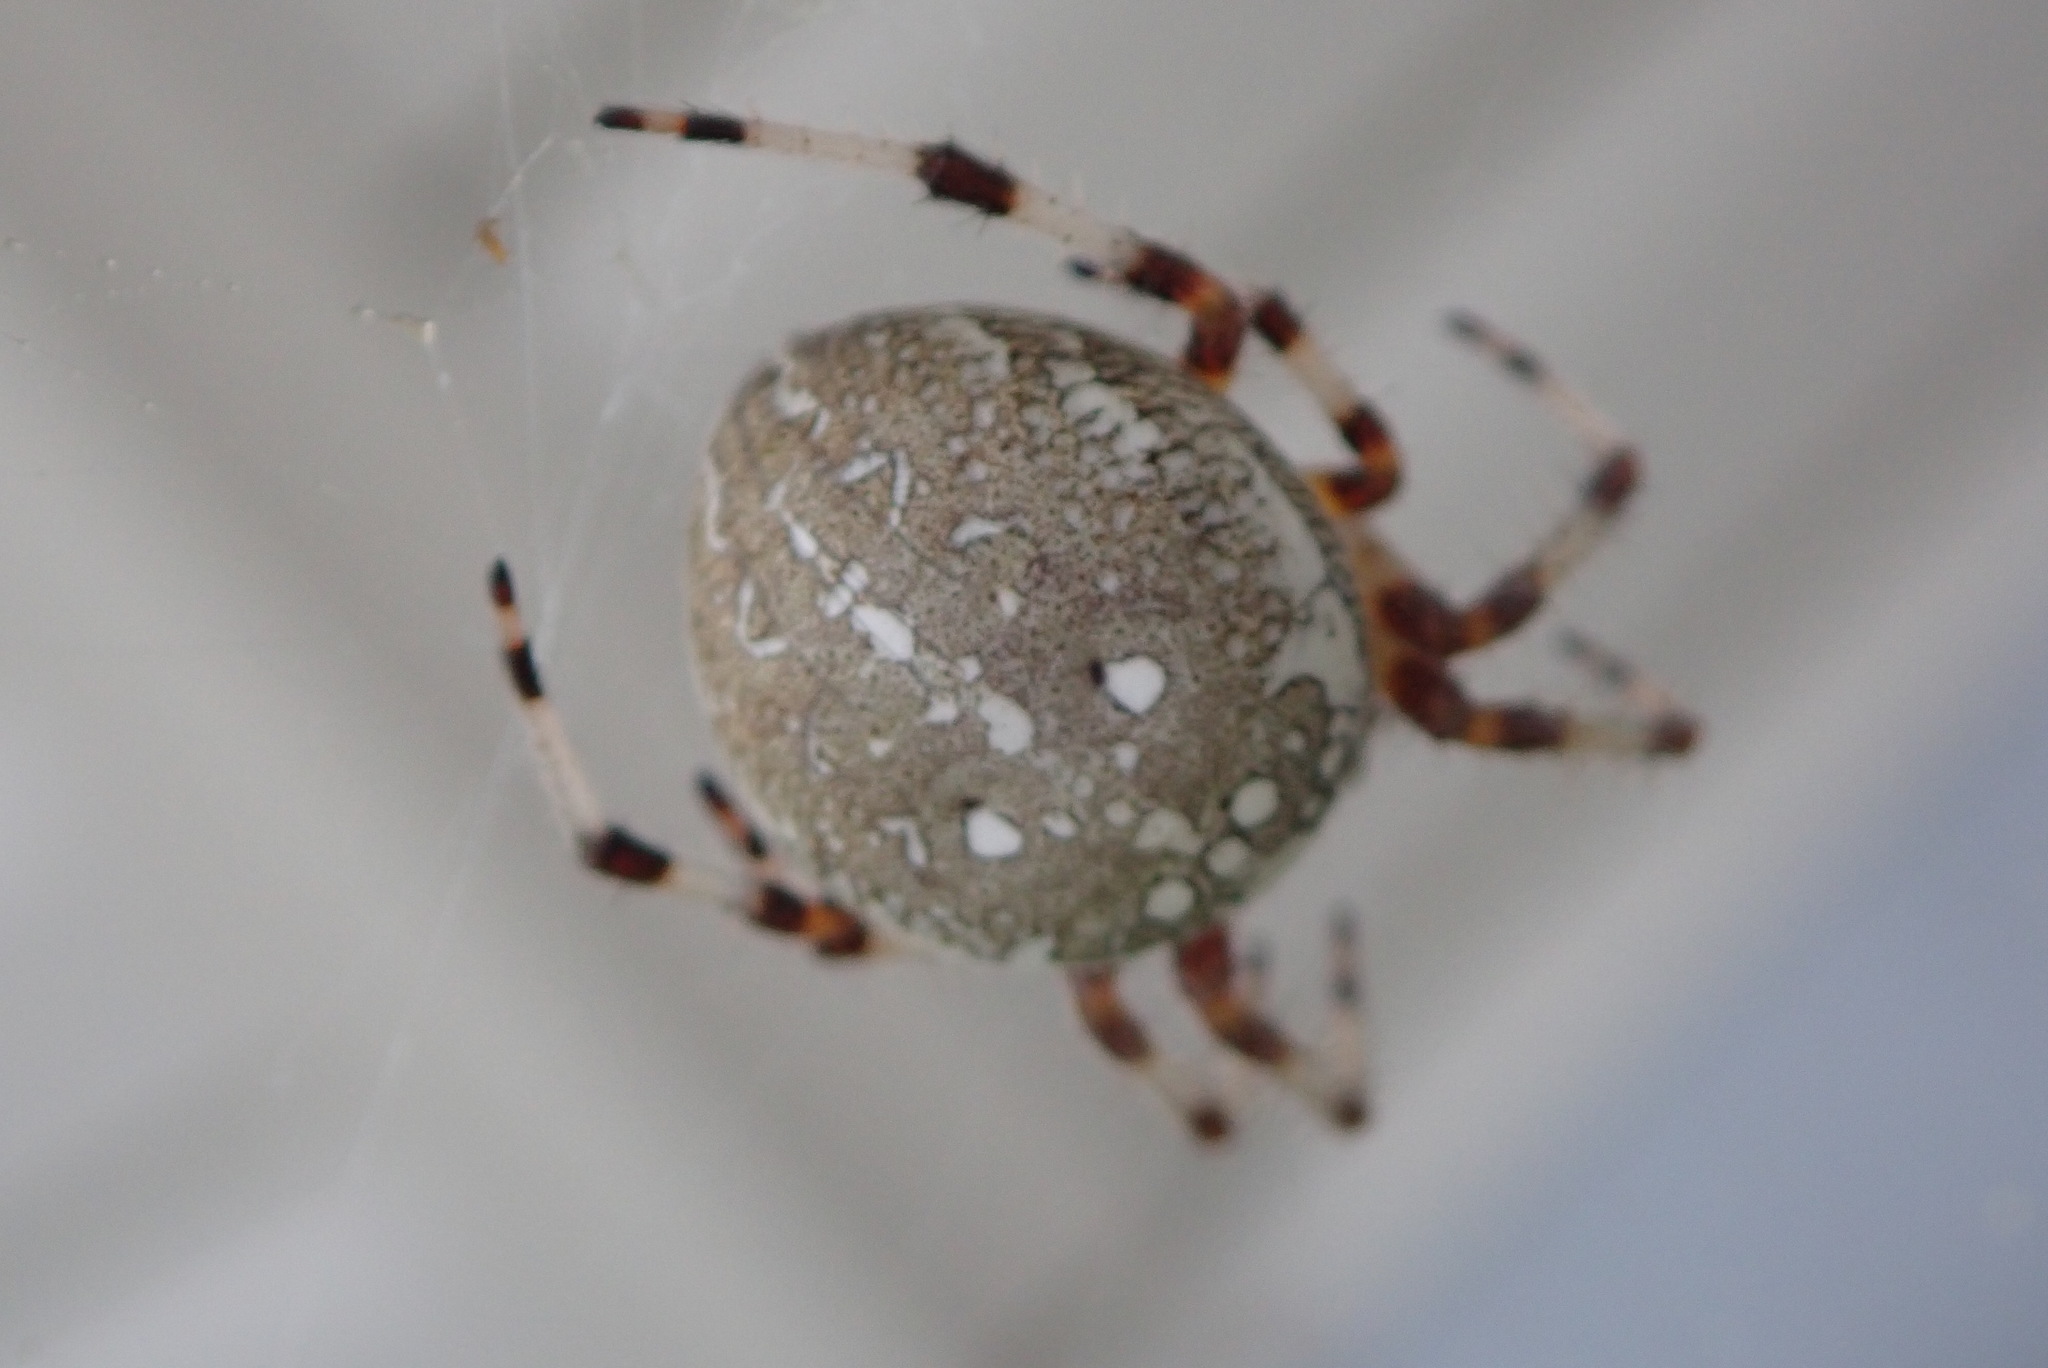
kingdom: Animalia
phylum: Arthropoda
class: Arachnida
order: Araneae
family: Araneidae
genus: Araneus
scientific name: Araneus marmoreus
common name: Marbled orbweaver
